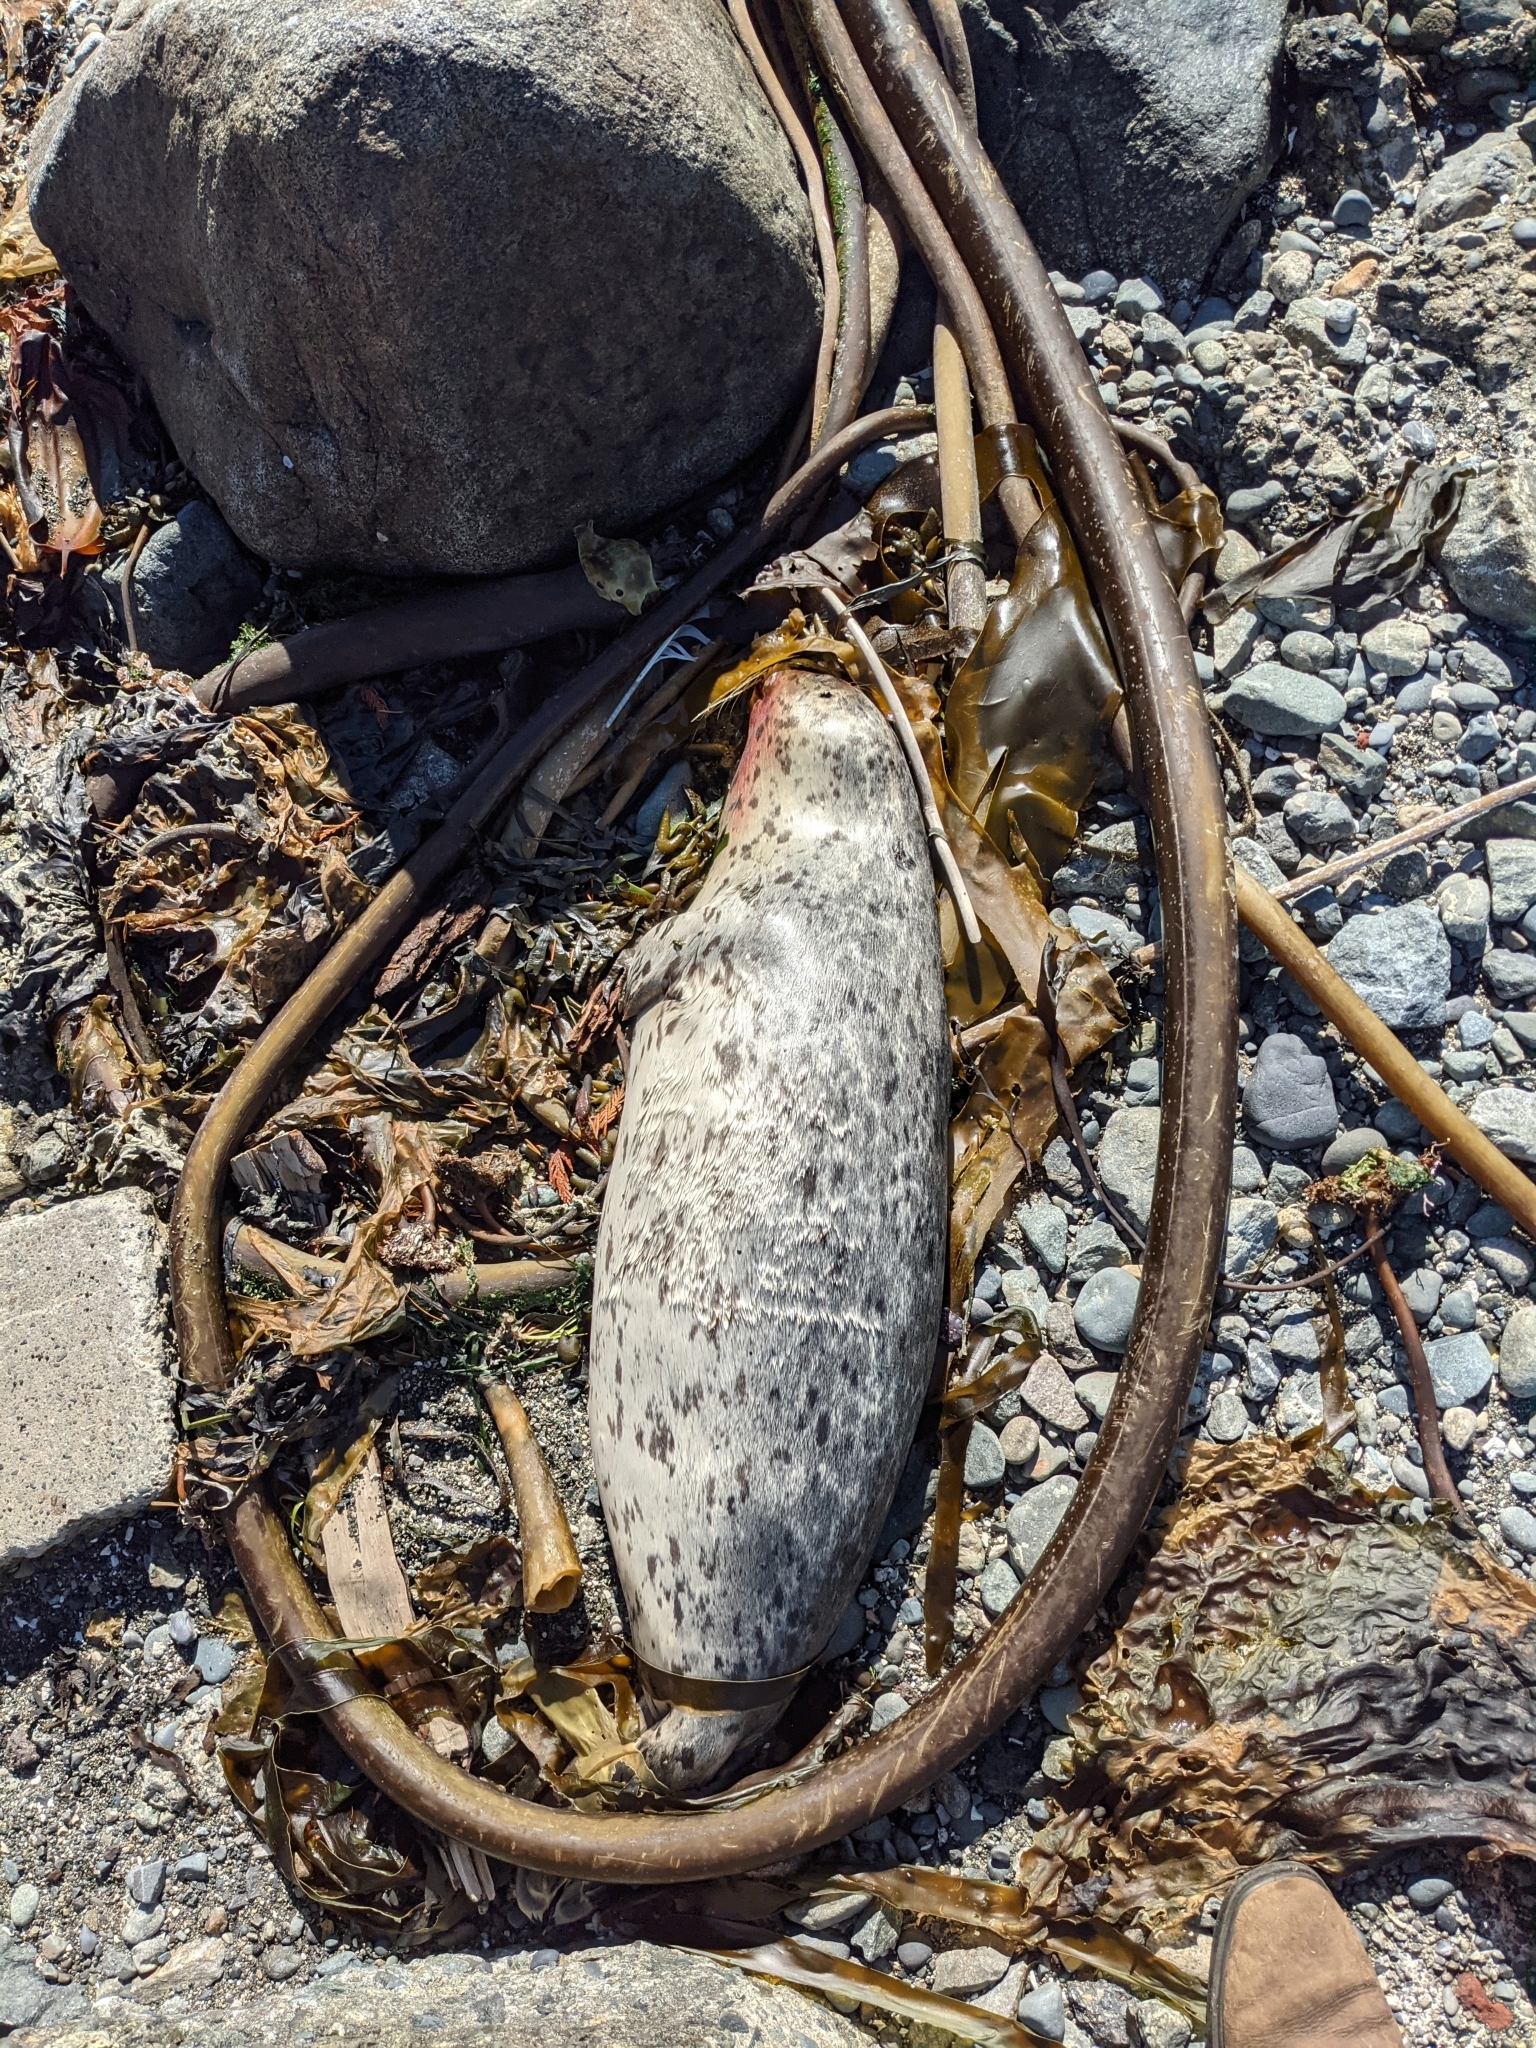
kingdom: Animalia
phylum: Chordata
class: Mammalia
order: Carnivora
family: Phocidae
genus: Phoca
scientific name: Phoca vitulina
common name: Harbor seal
